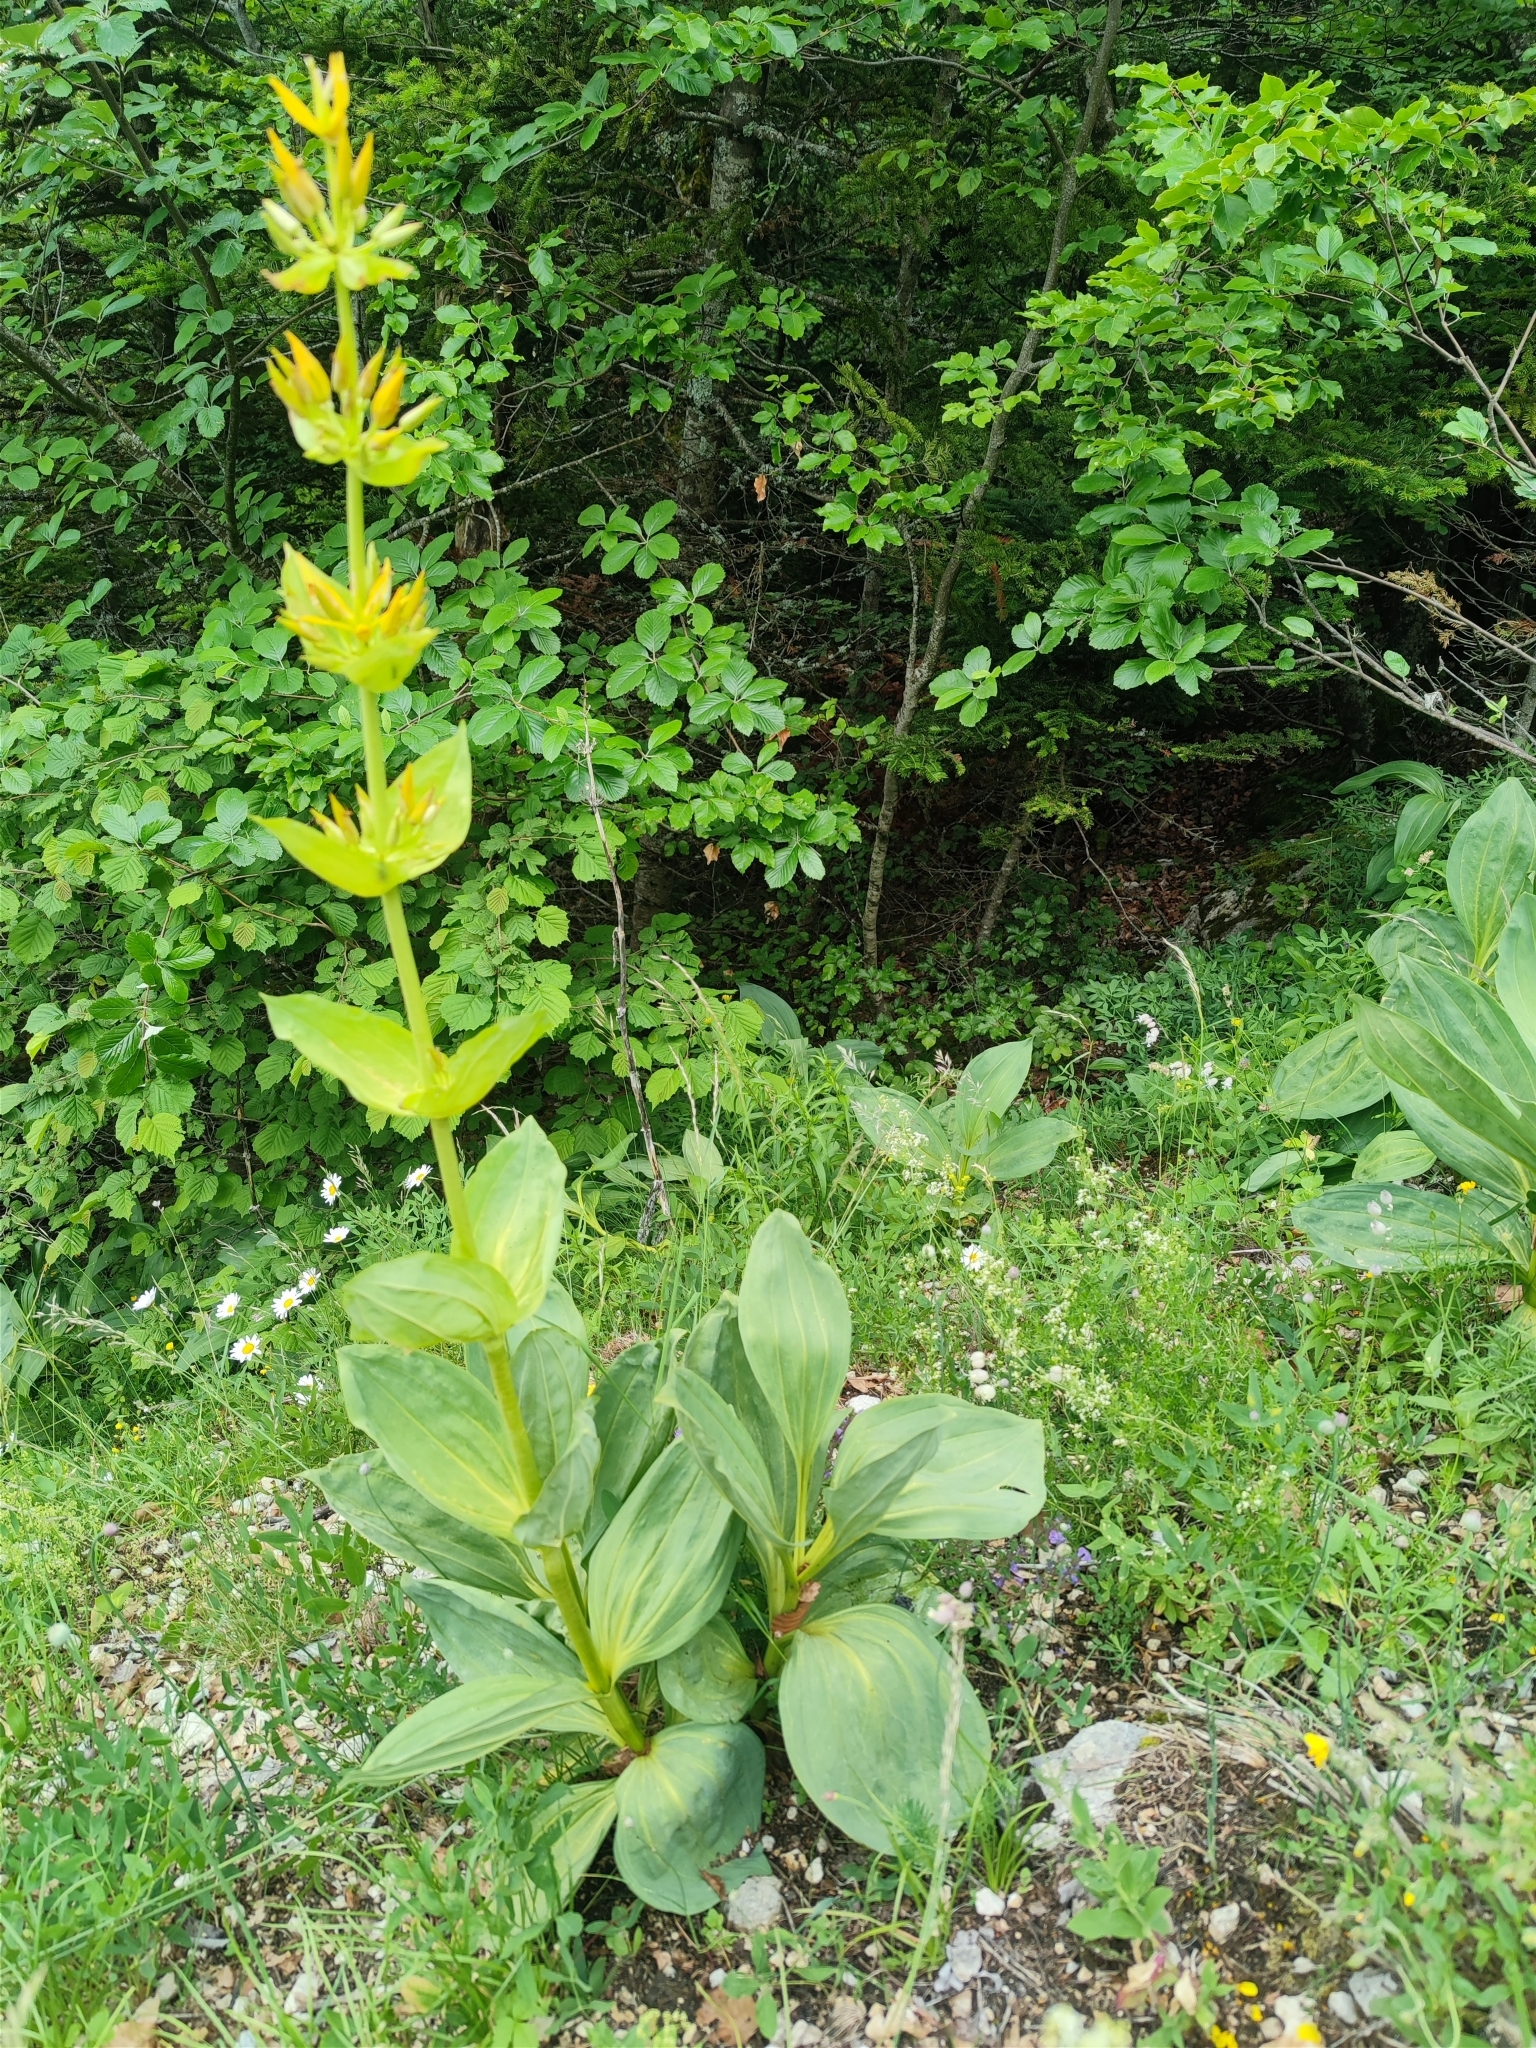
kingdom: Plantae
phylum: Tracheophyta
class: Magnoliopsida
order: Gentianales
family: Gentianaceae
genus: Gentiana
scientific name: Gentiana lutea
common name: Great yellow gentian
